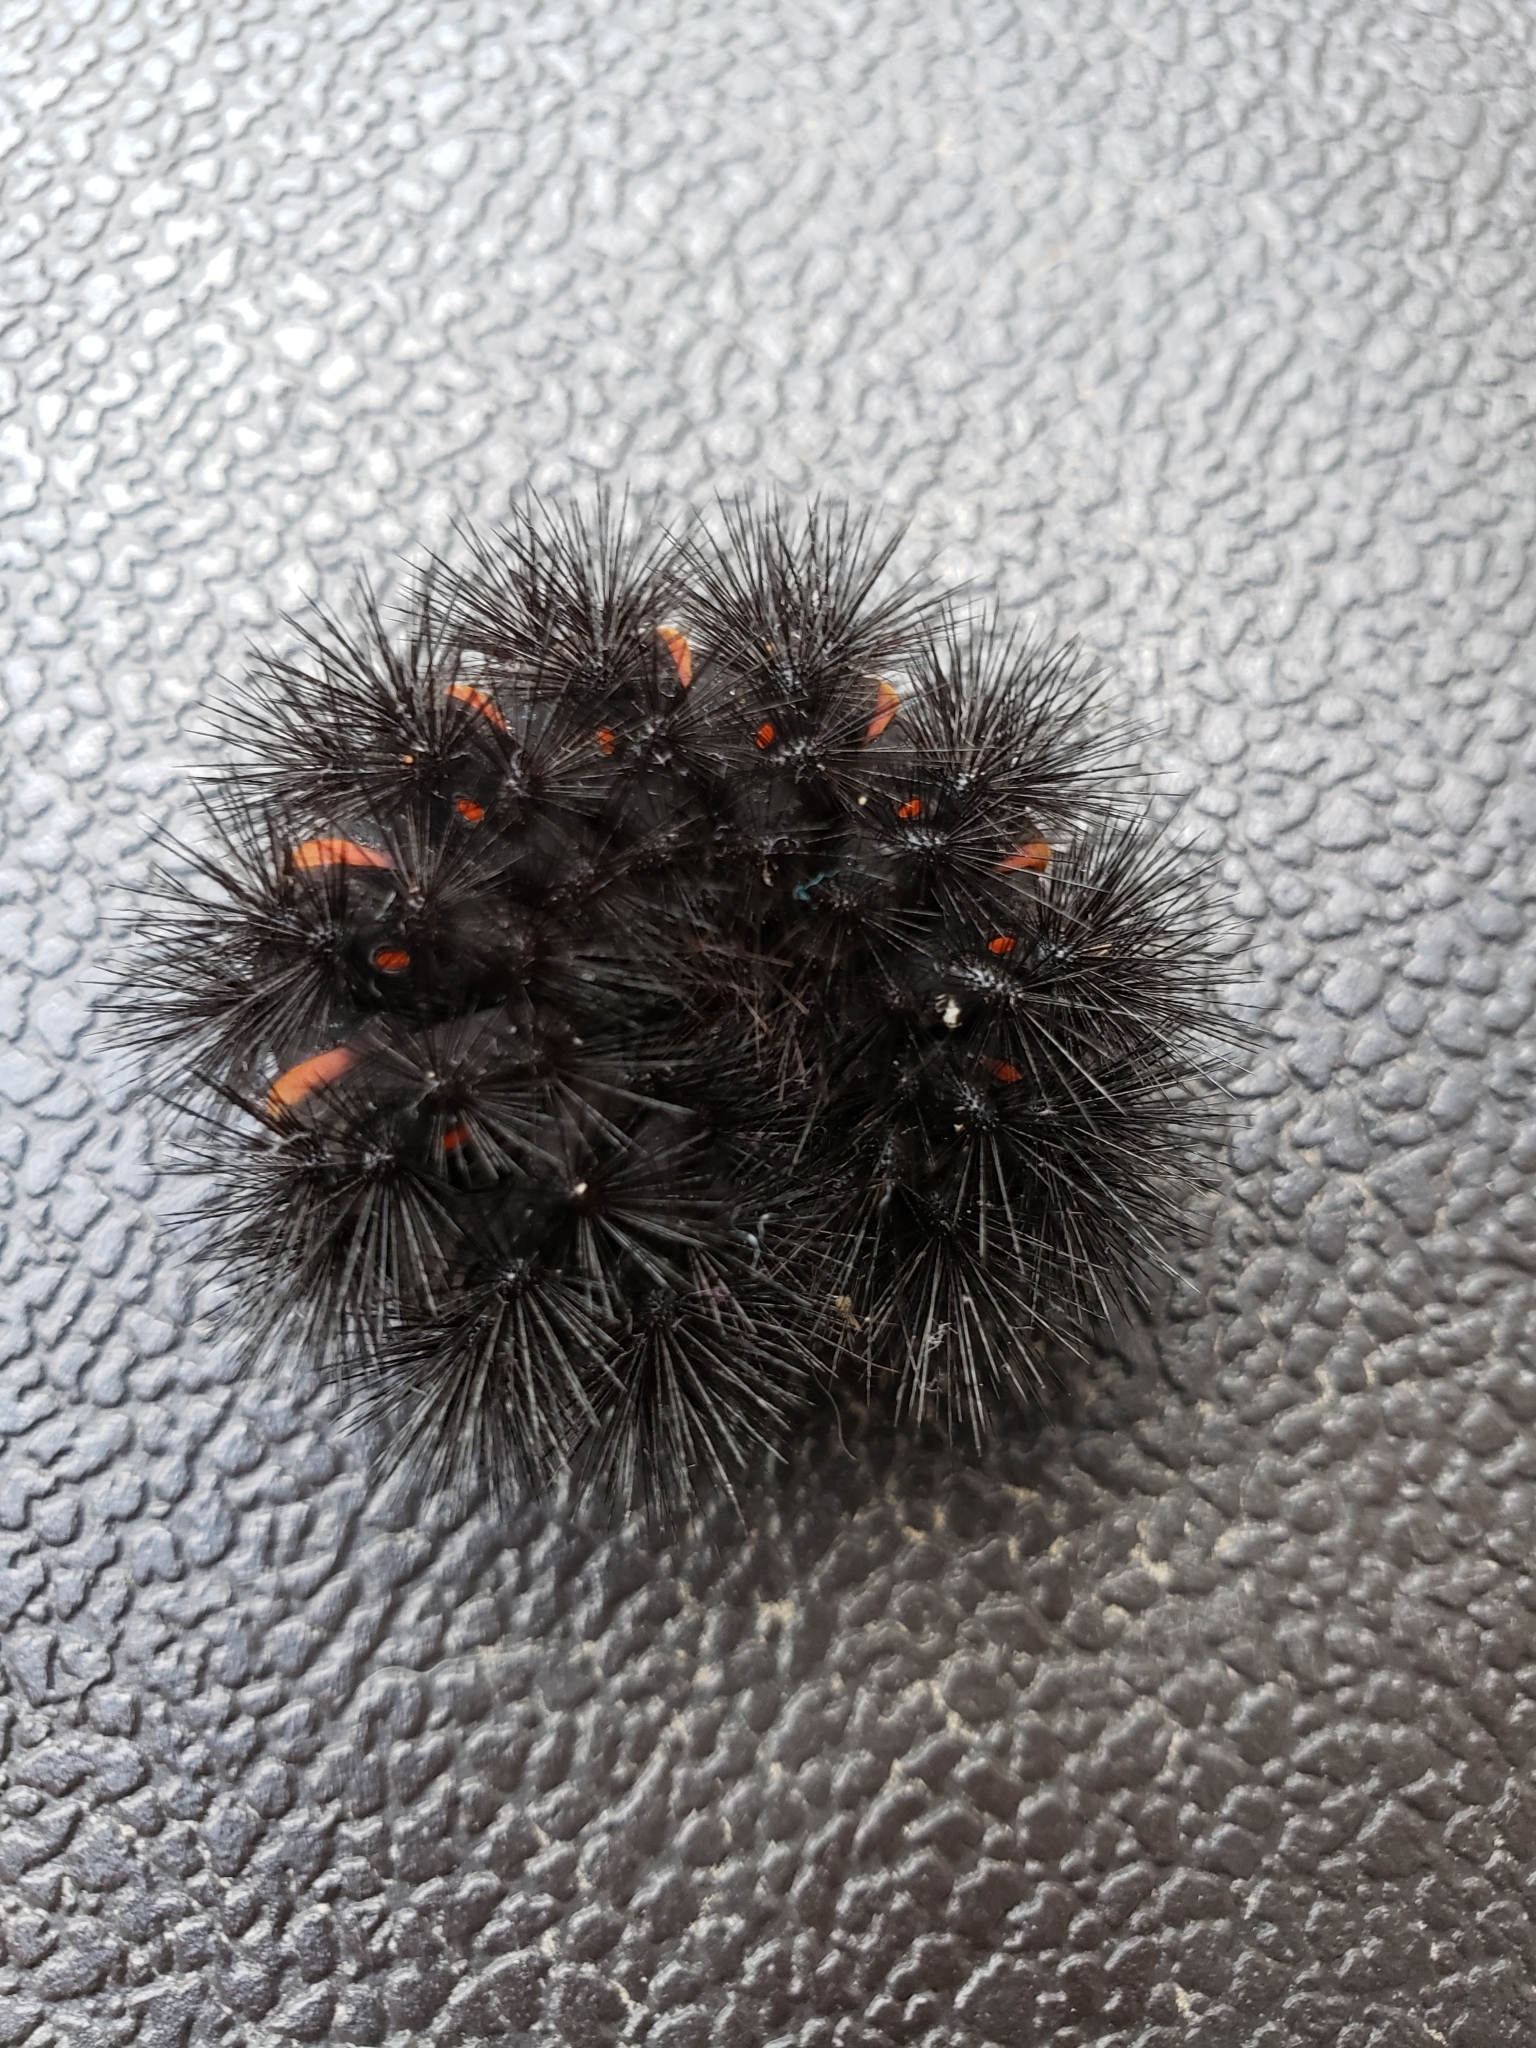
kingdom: Animalia
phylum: Arthropoda
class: Insecta
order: Lepidoptera
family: Erebidae
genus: Hypercompe
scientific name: Hypercompe scribonia
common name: Giant leopard moth
